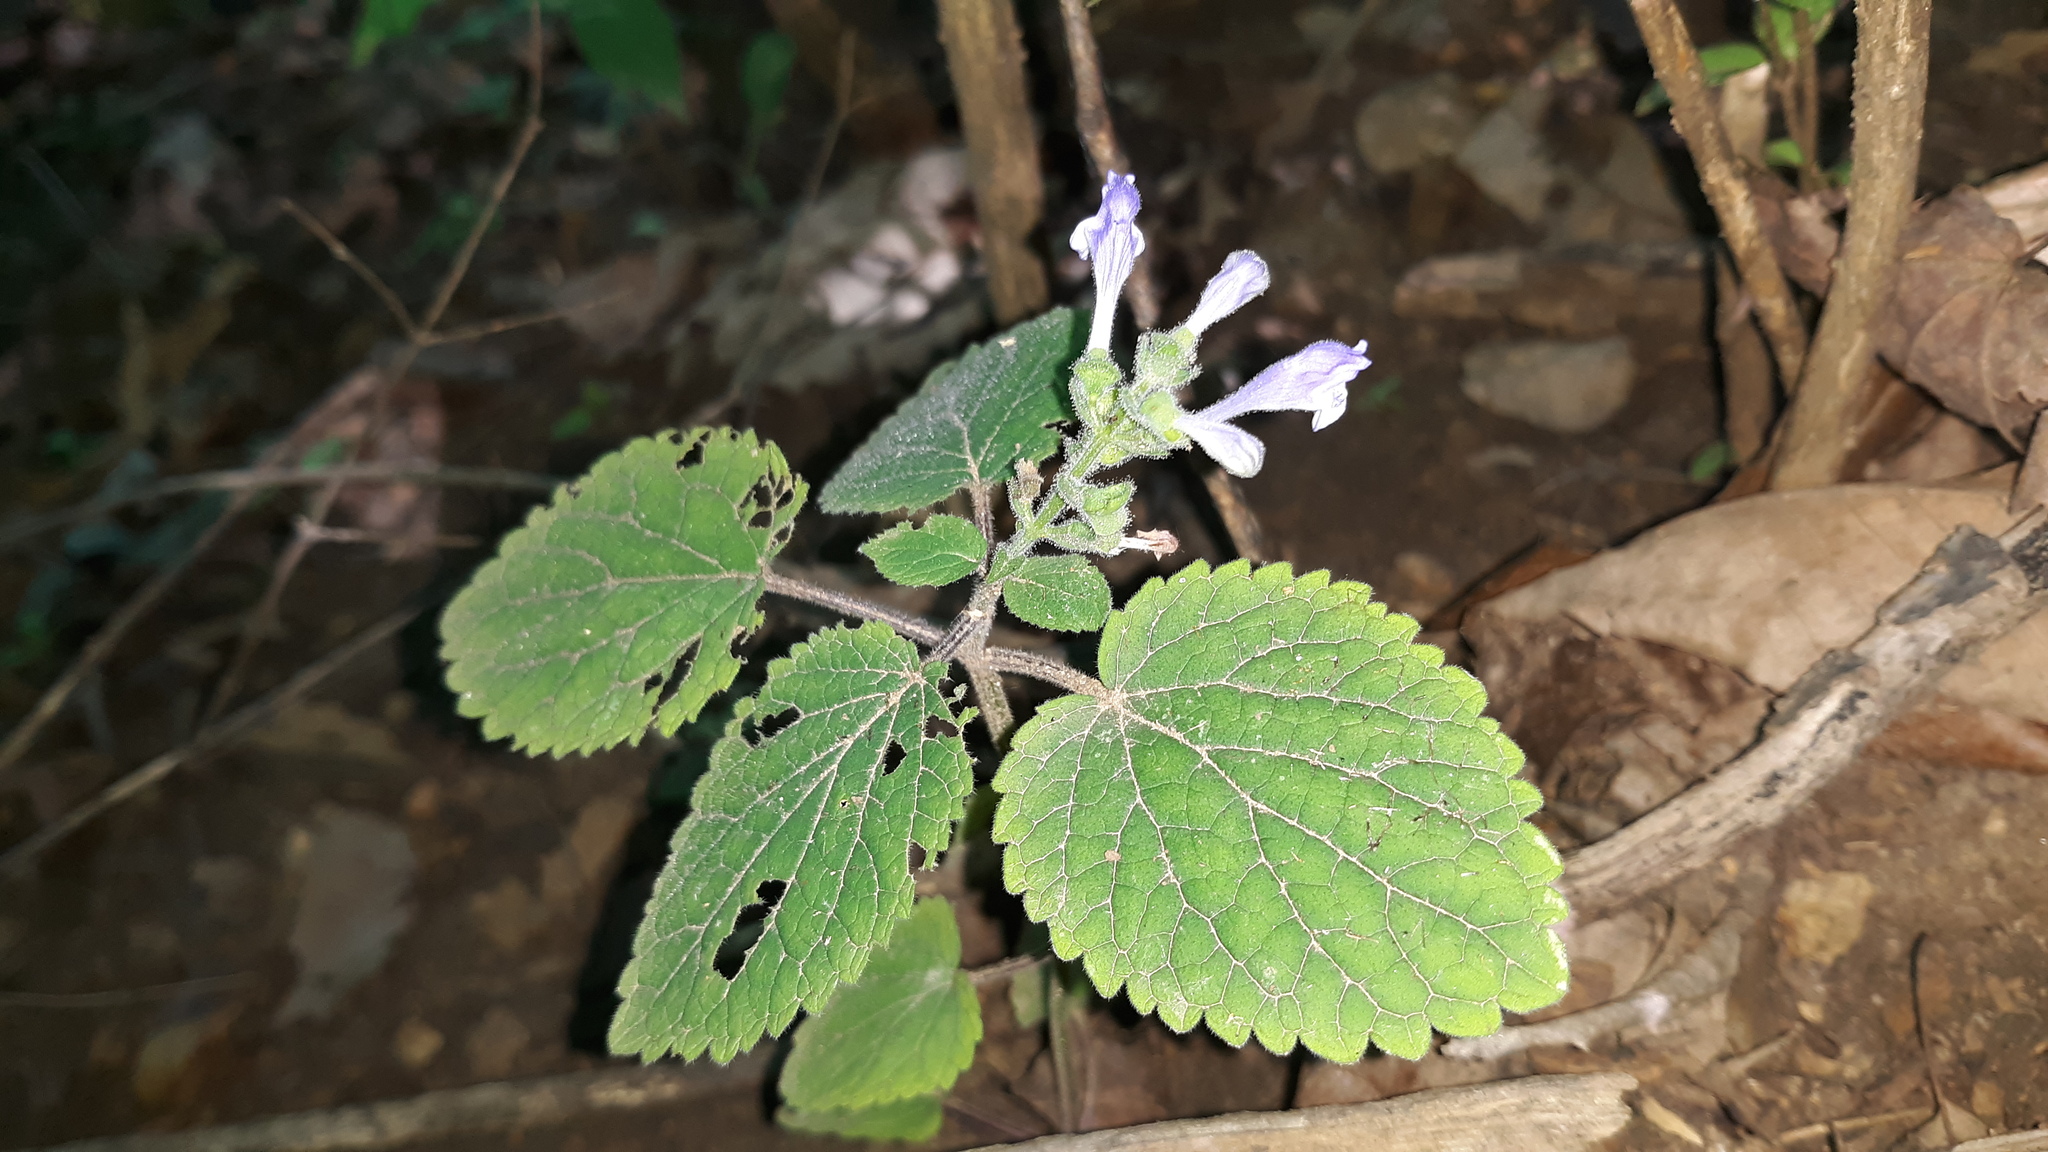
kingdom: Plantae
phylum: Tracheophyta
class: Magnoliopsida
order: Lamiales
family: Lamiaceae
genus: Scutellaria
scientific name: Scutellaria ovata
